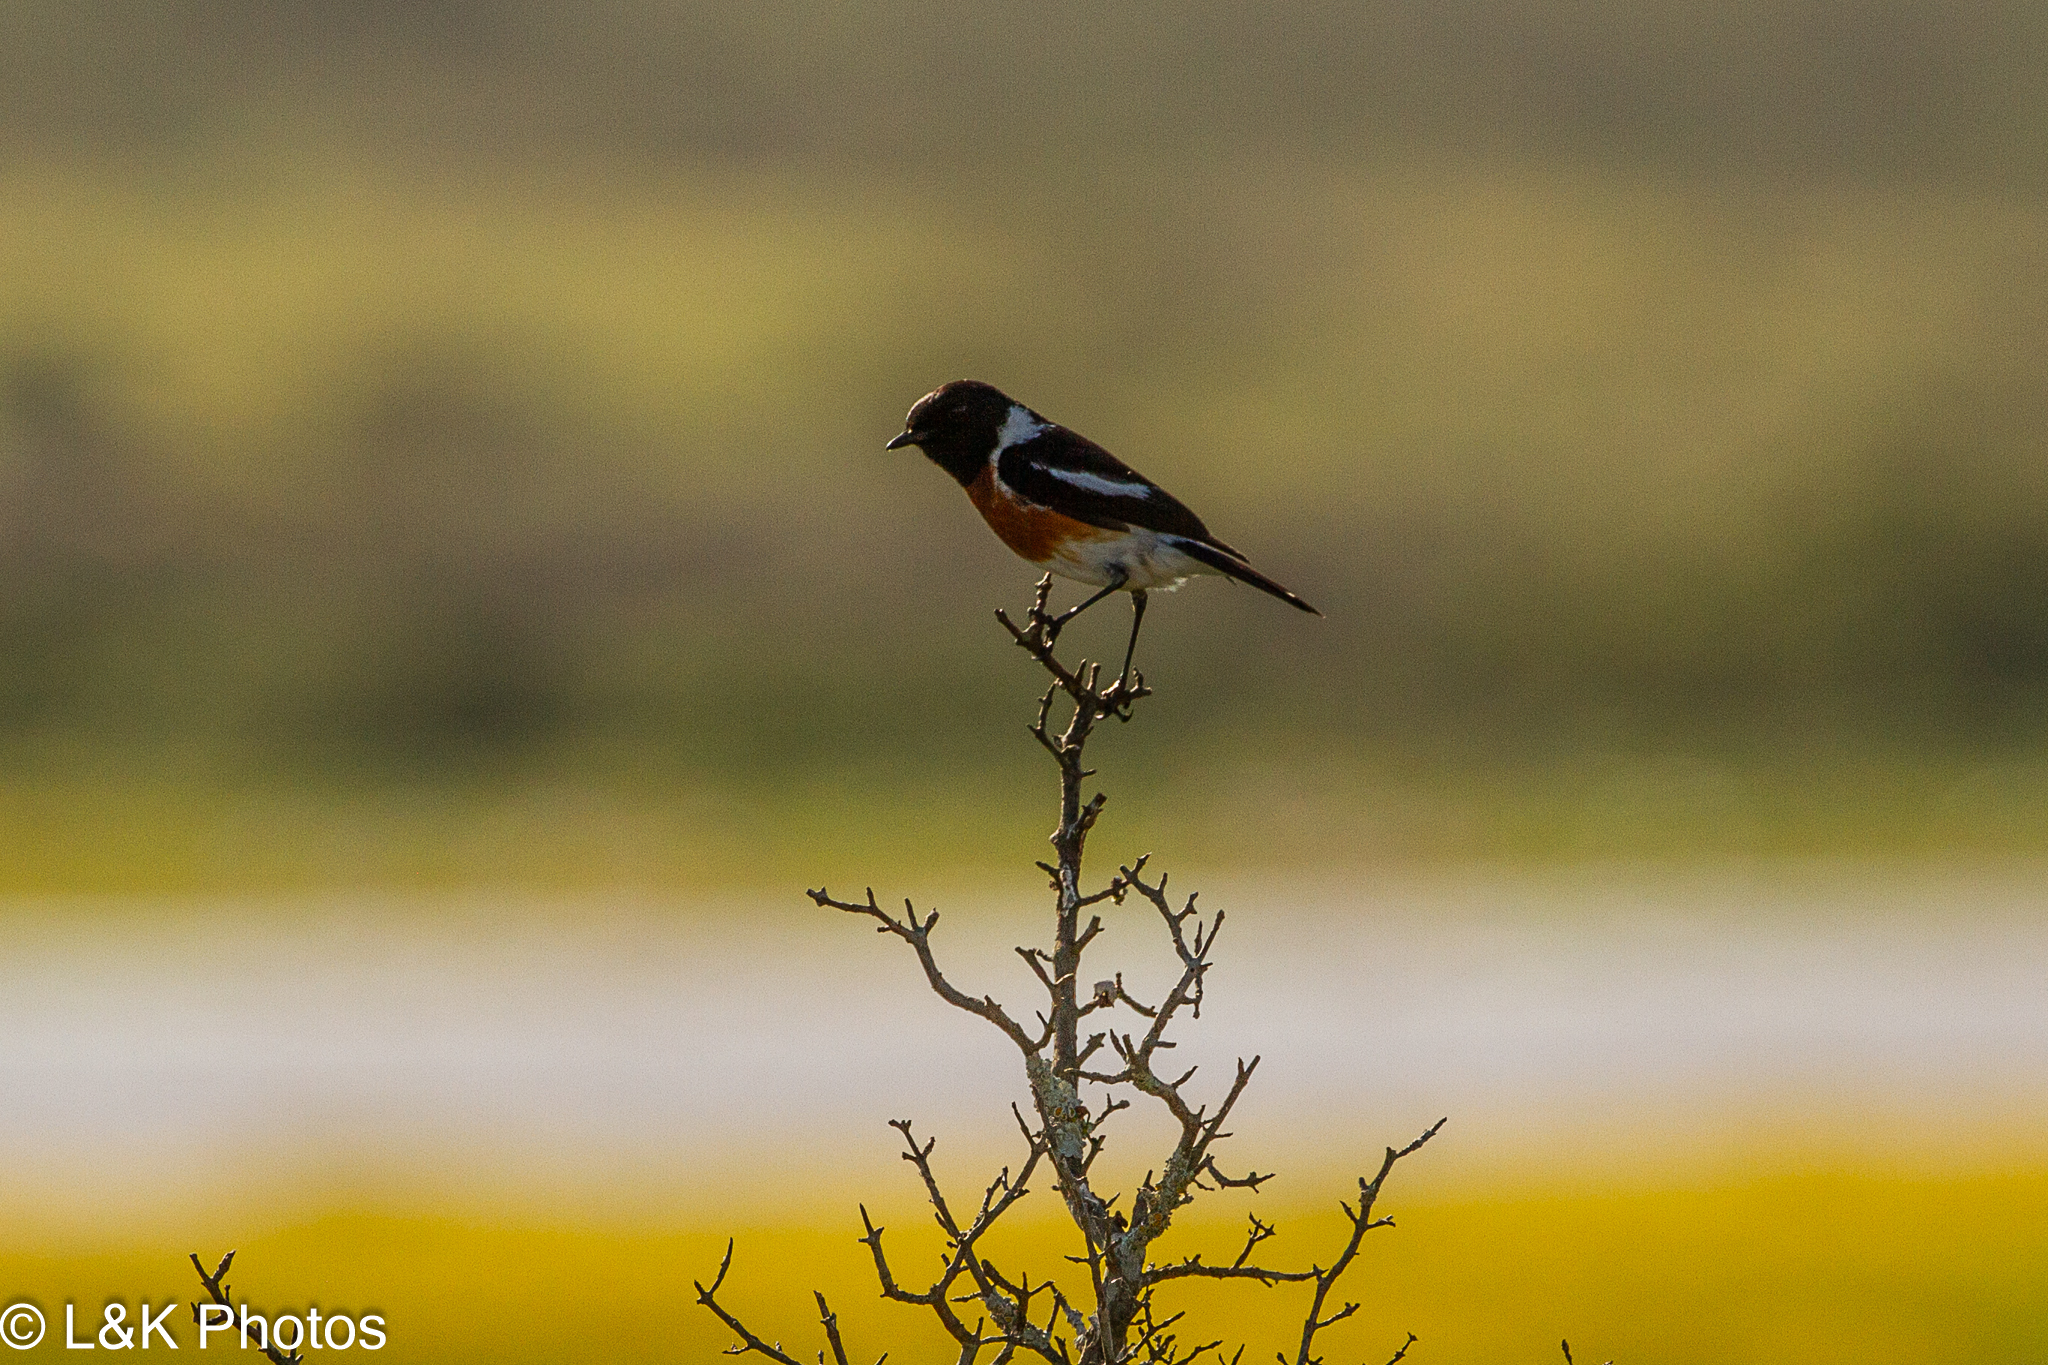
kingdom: Animalia
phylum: Chordata
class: Aves
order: Passeriformes
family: Muscicapidae
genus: Saxicola
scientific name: Saxicola torquatus
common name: African stonechat
